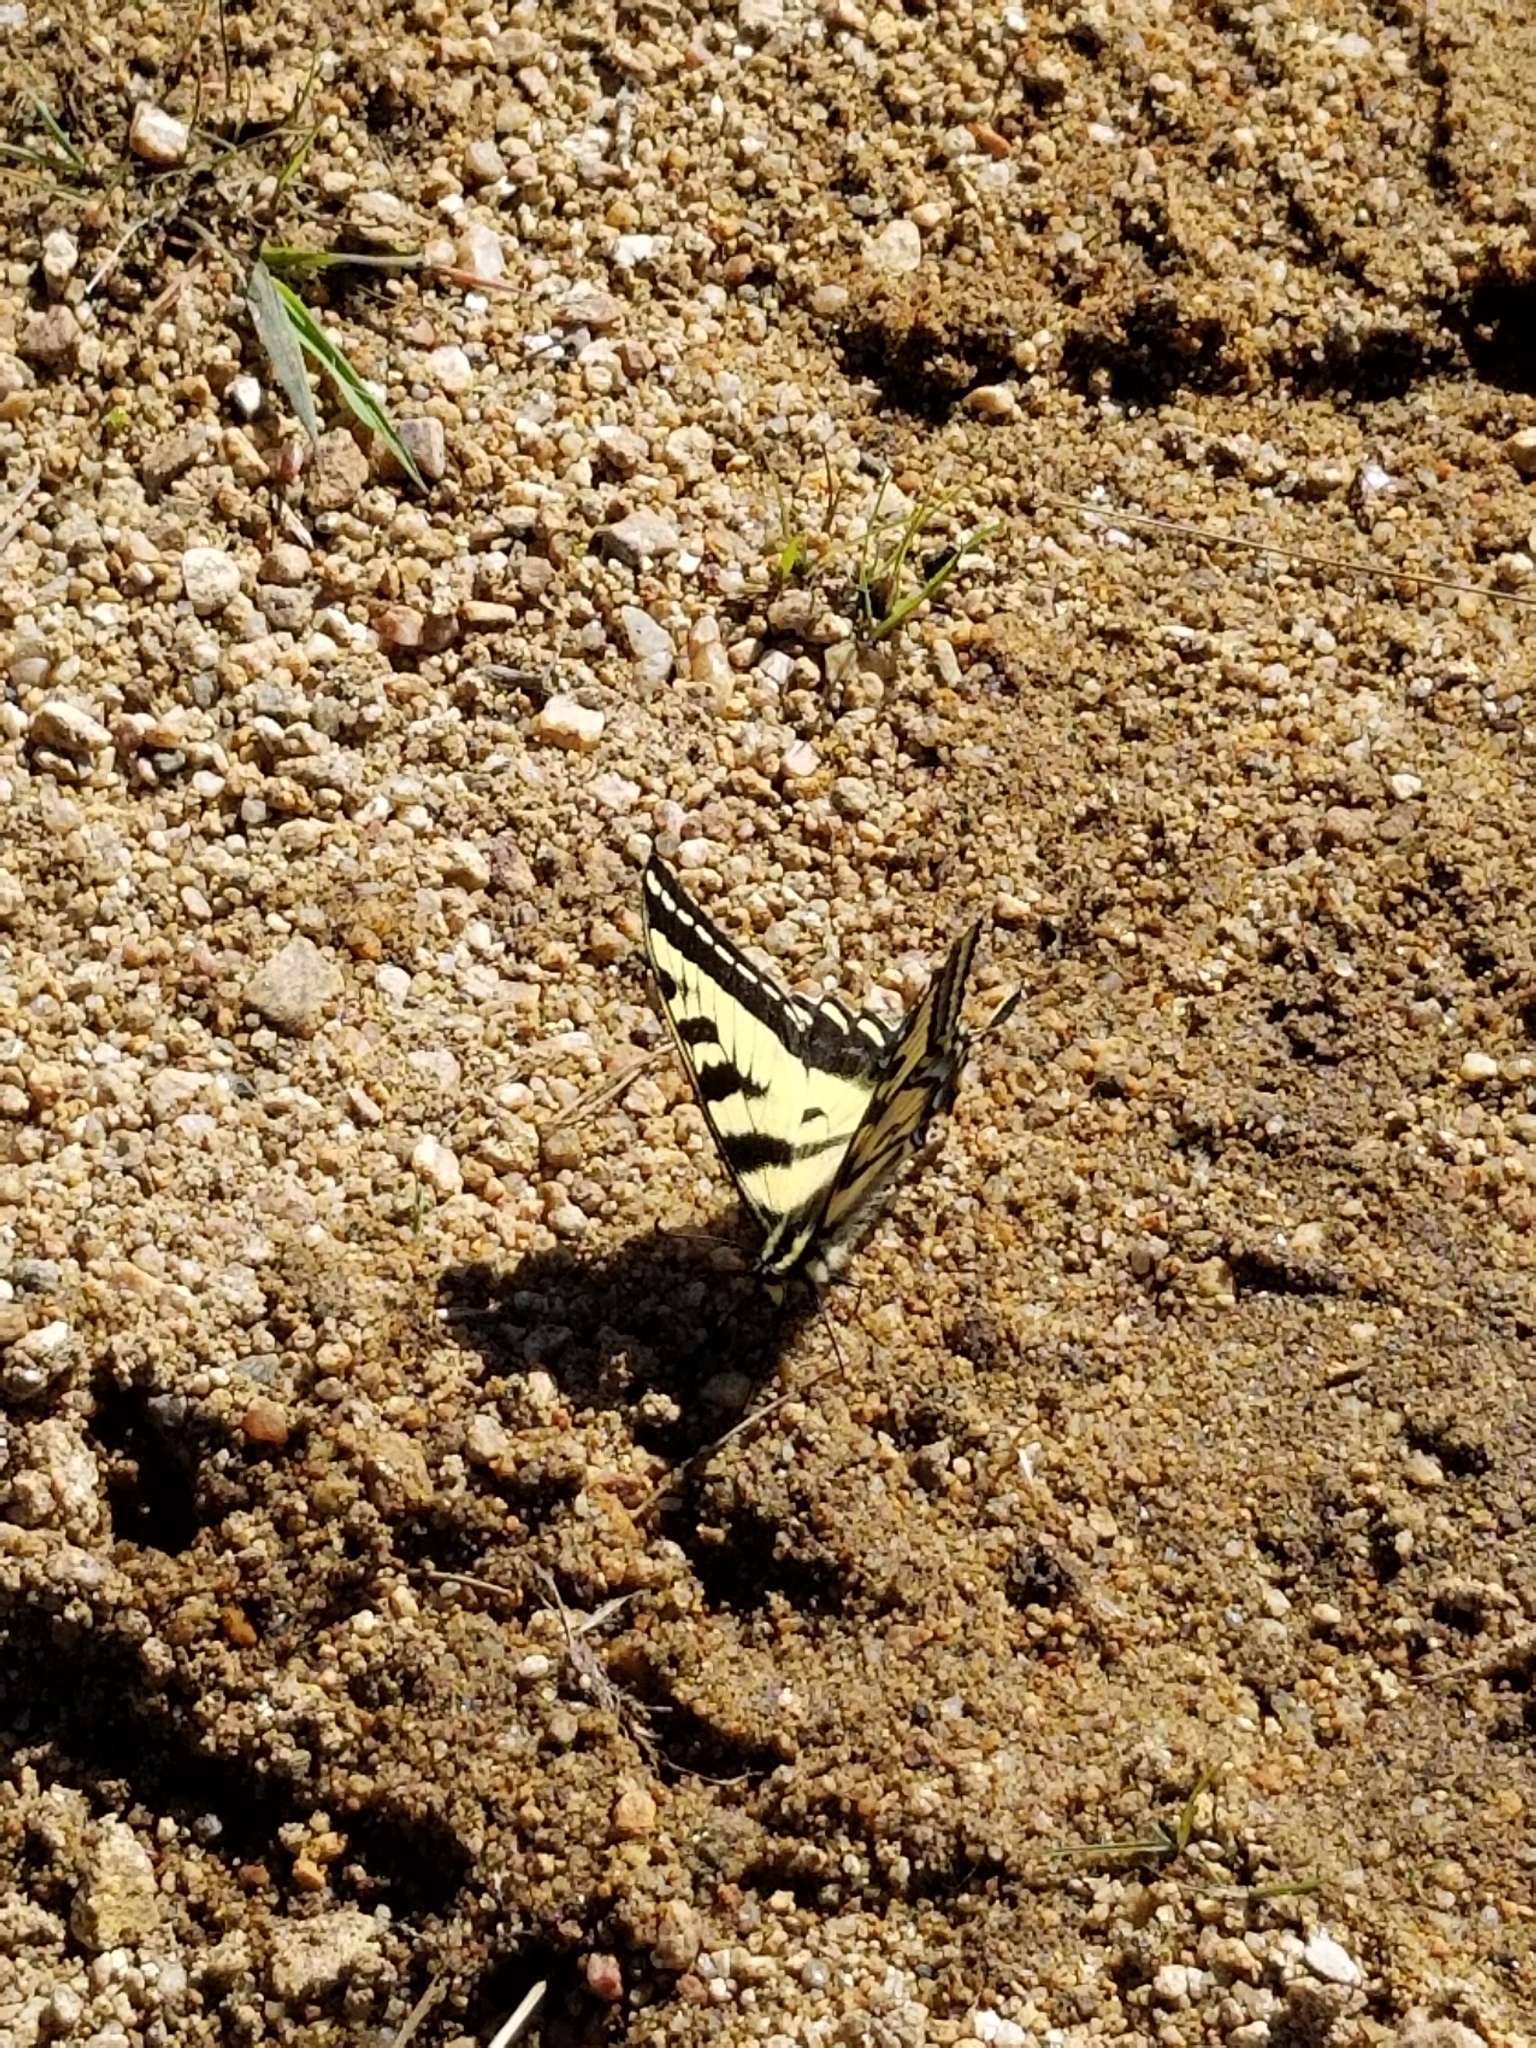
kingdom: Animalia
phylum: Arthropoda
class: Insecta
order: Lepidoptera
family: Papilionidae
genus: Papilio
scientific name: Papilio rutulus
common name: Western tiger swallowtail
